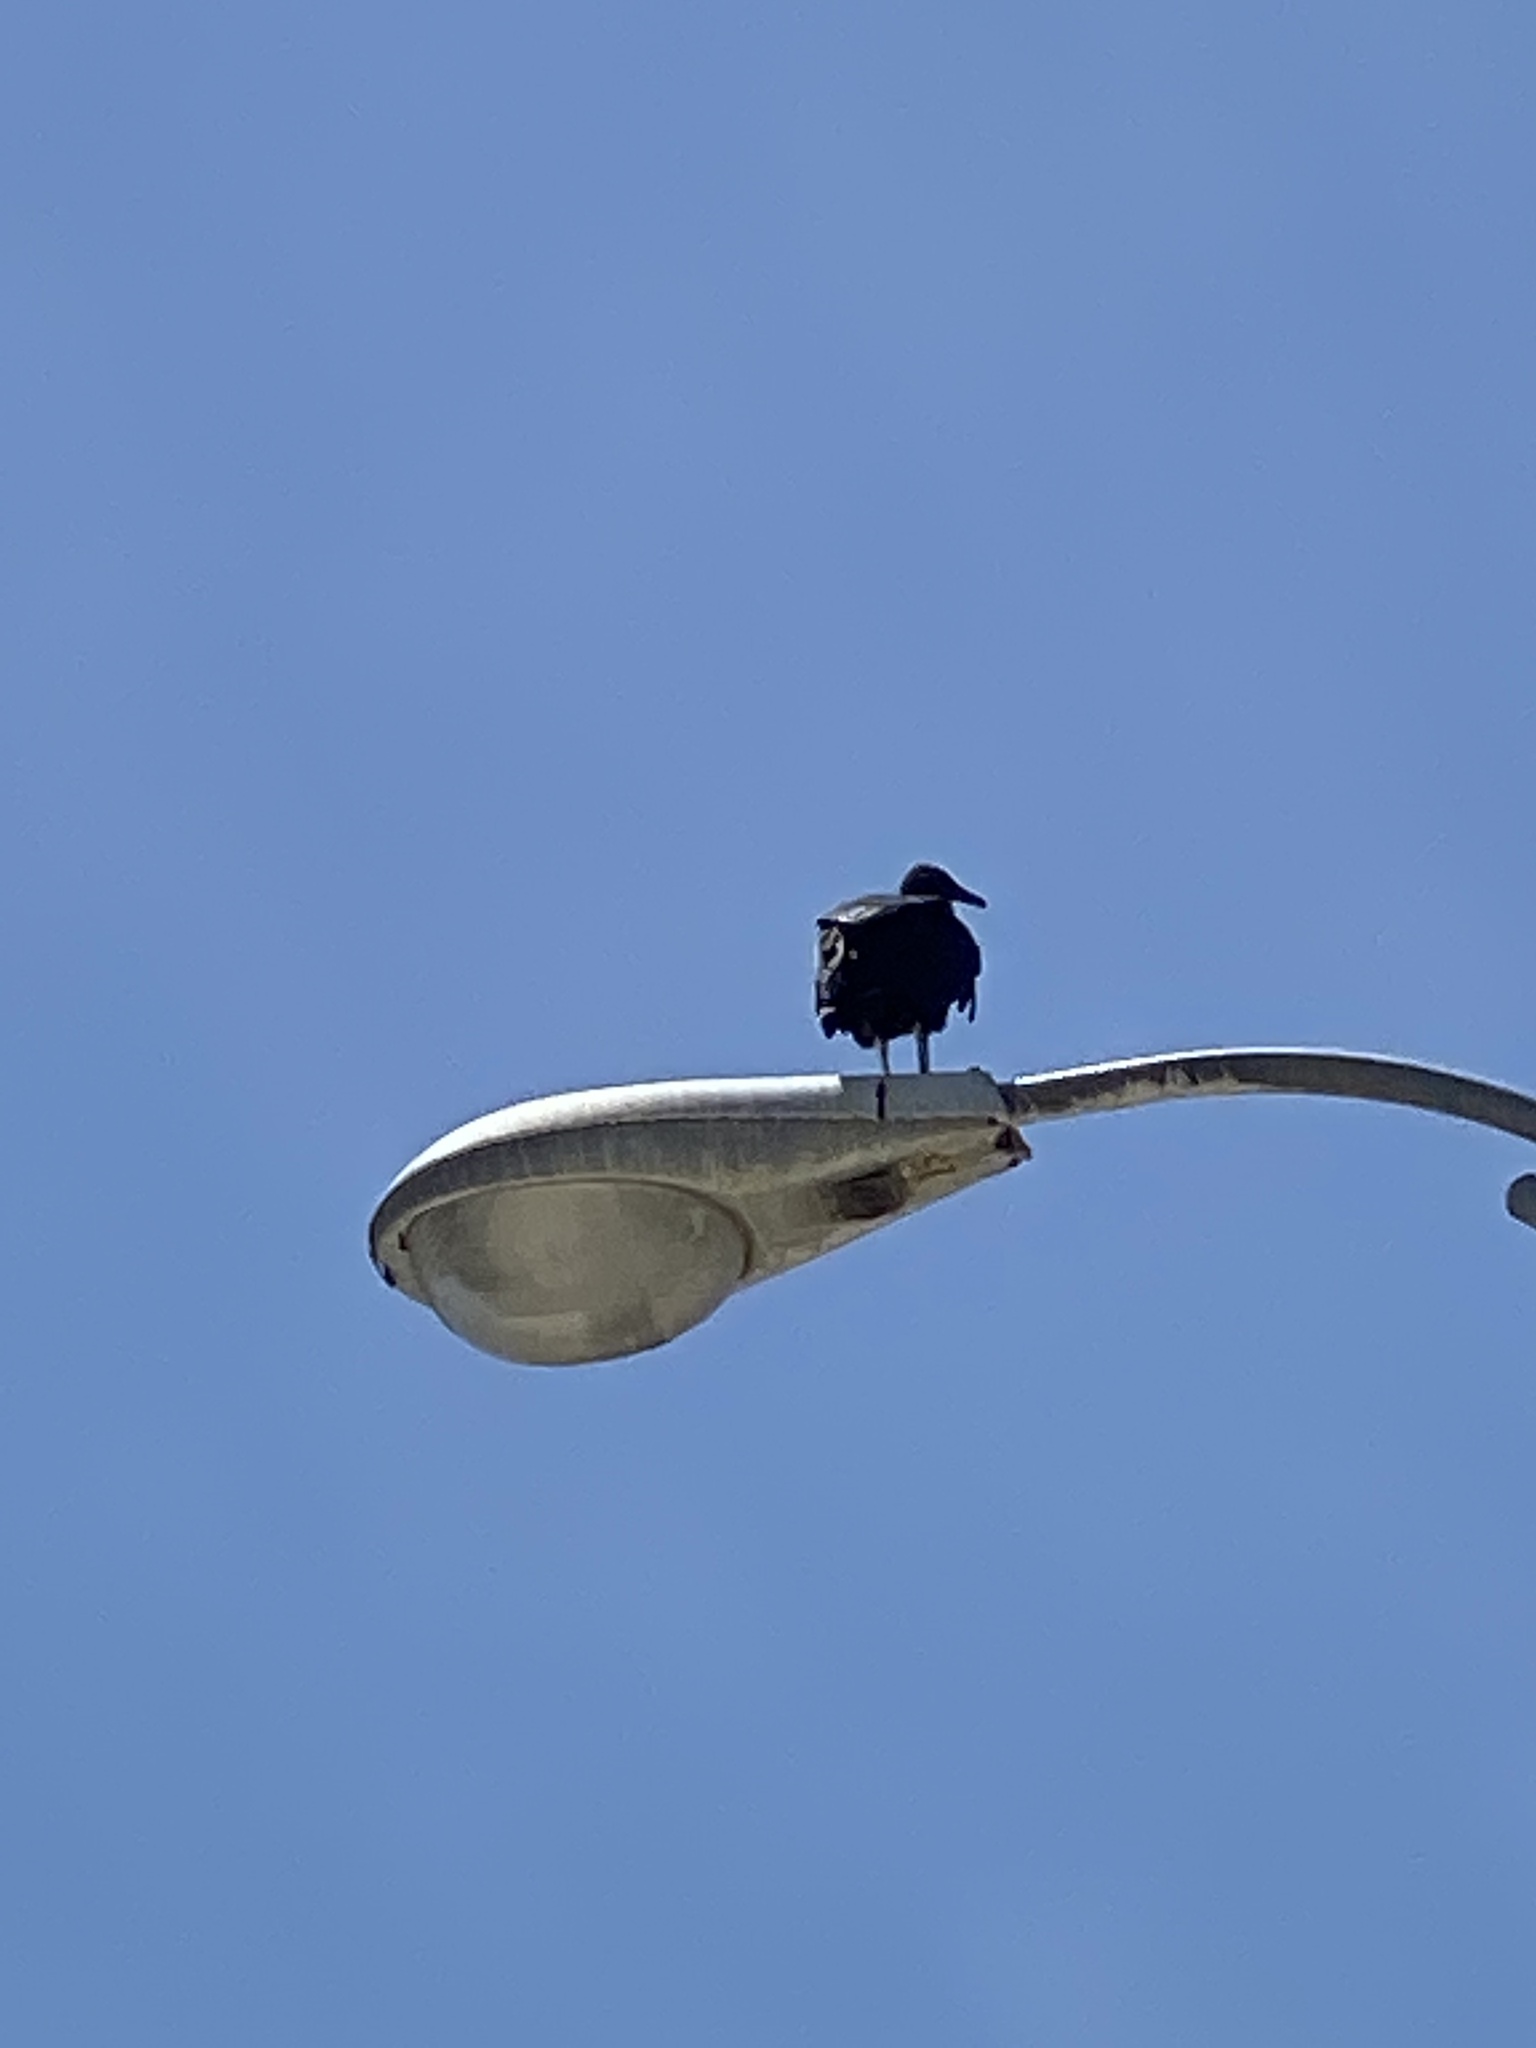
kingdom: Animalia
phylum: Chordata
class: Aves
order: Accipitriformes
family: Cathartidae
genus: Coragyps
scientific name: Coragyps atratus
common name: Black vulture
